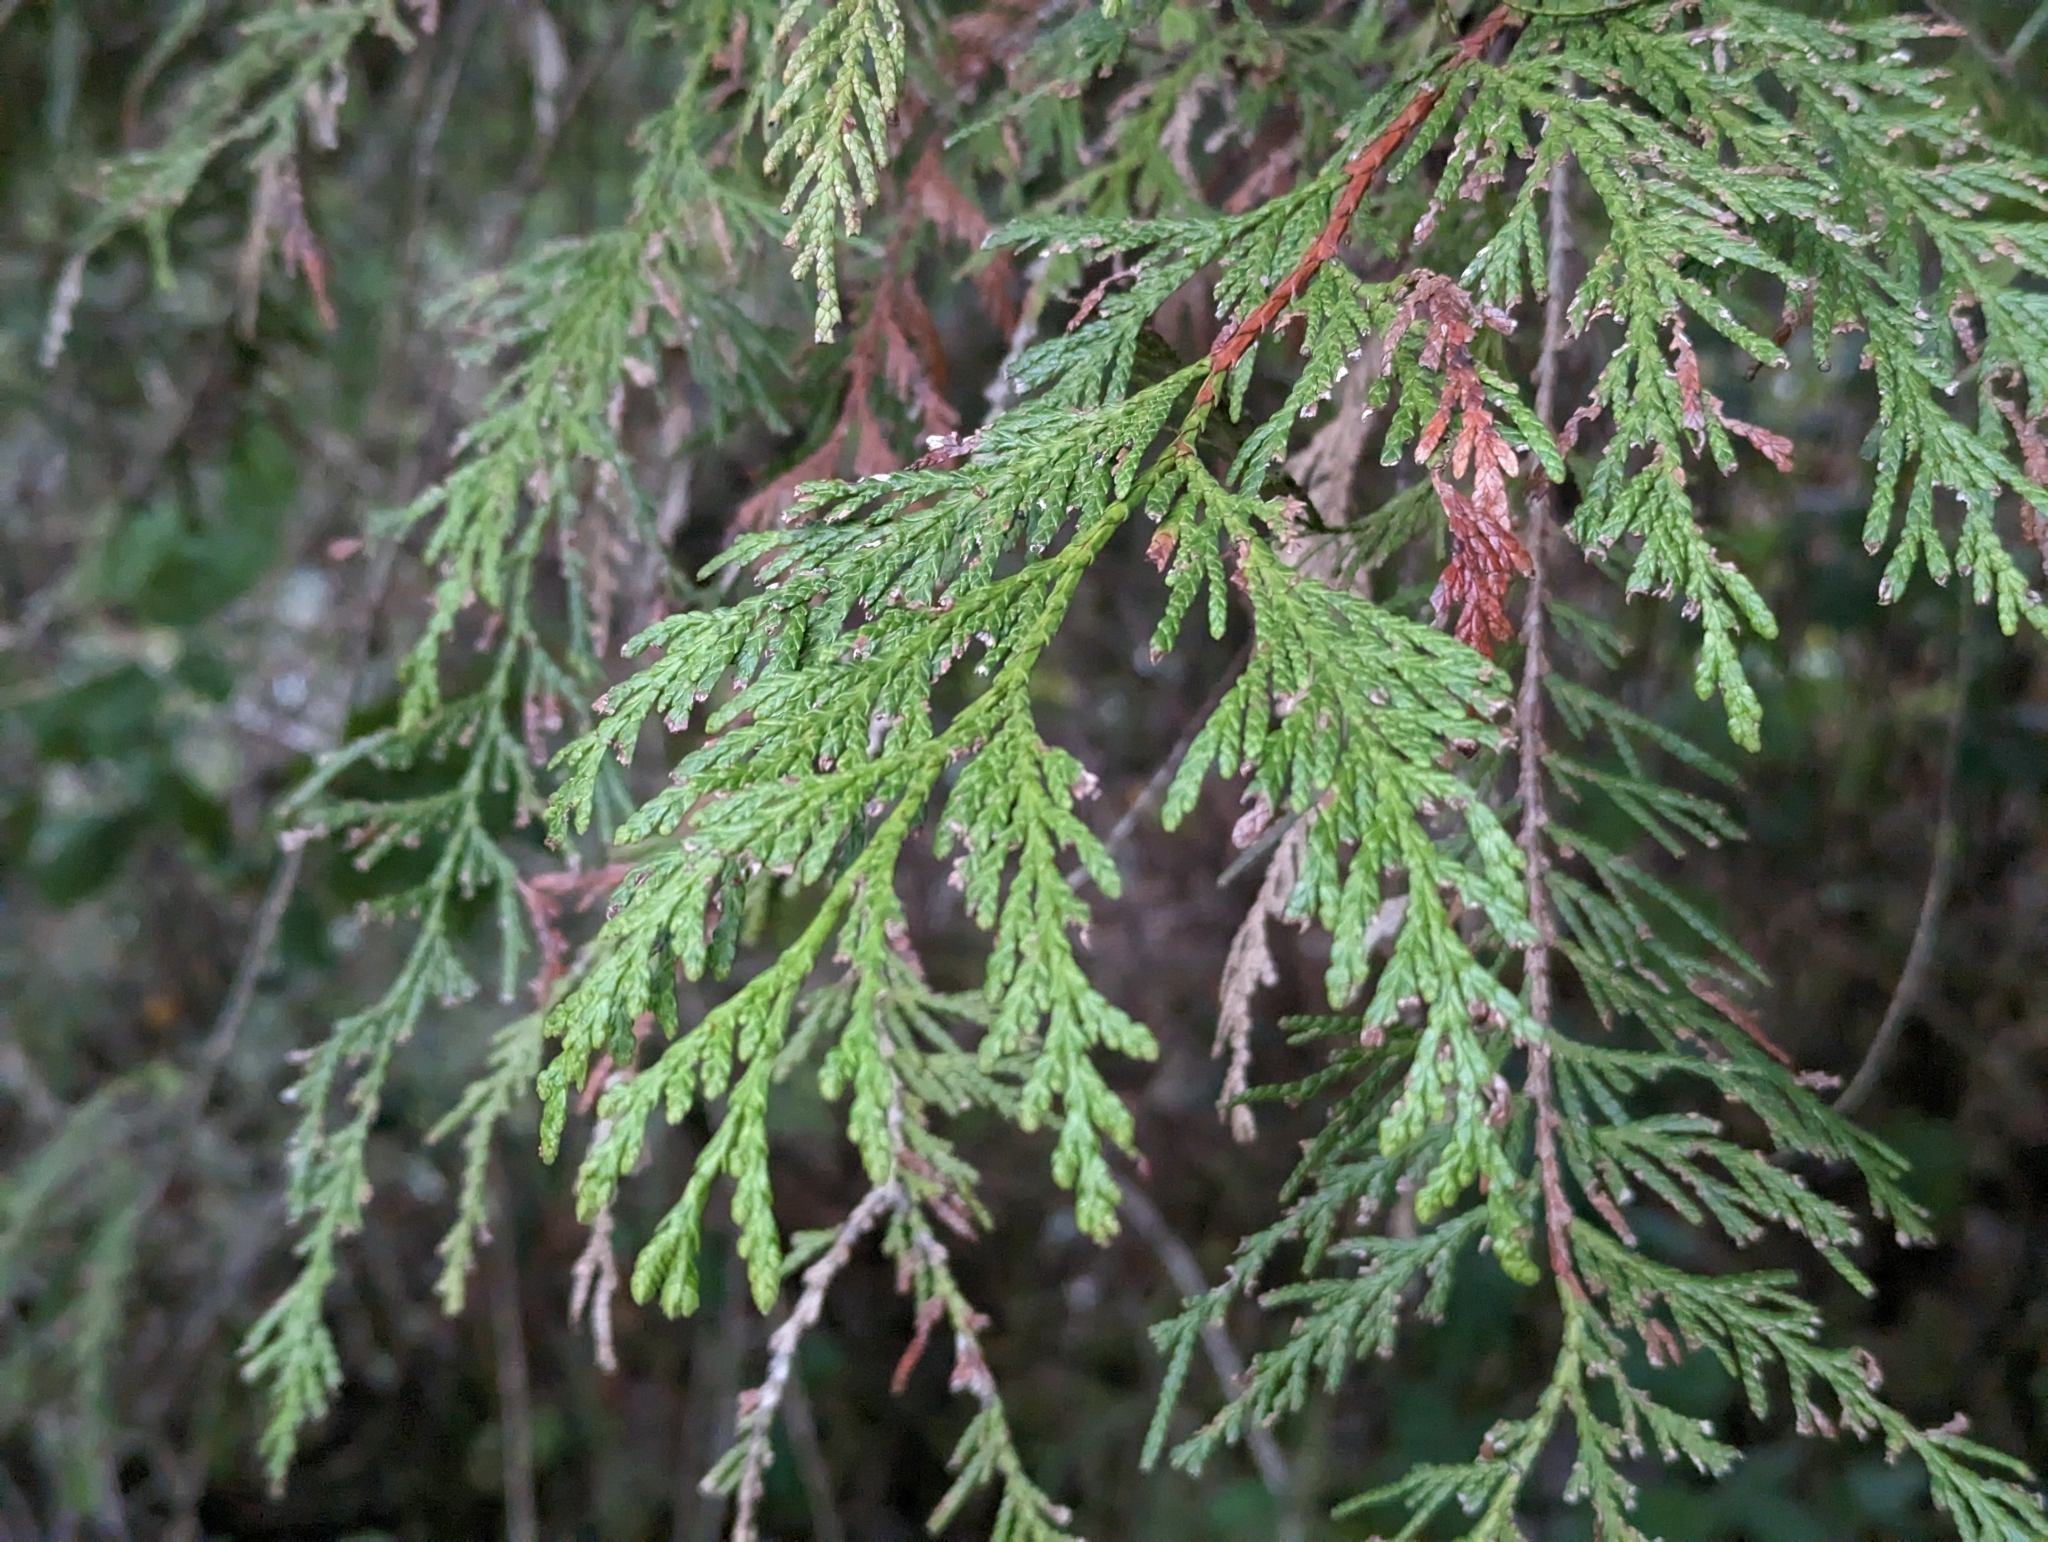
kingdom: Plantae
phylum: Tracheophyta
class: Pinopsida
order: Pinales
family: Cupressaceae
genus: Thuja
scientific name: Thuja plicata
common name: Western red-cedar
